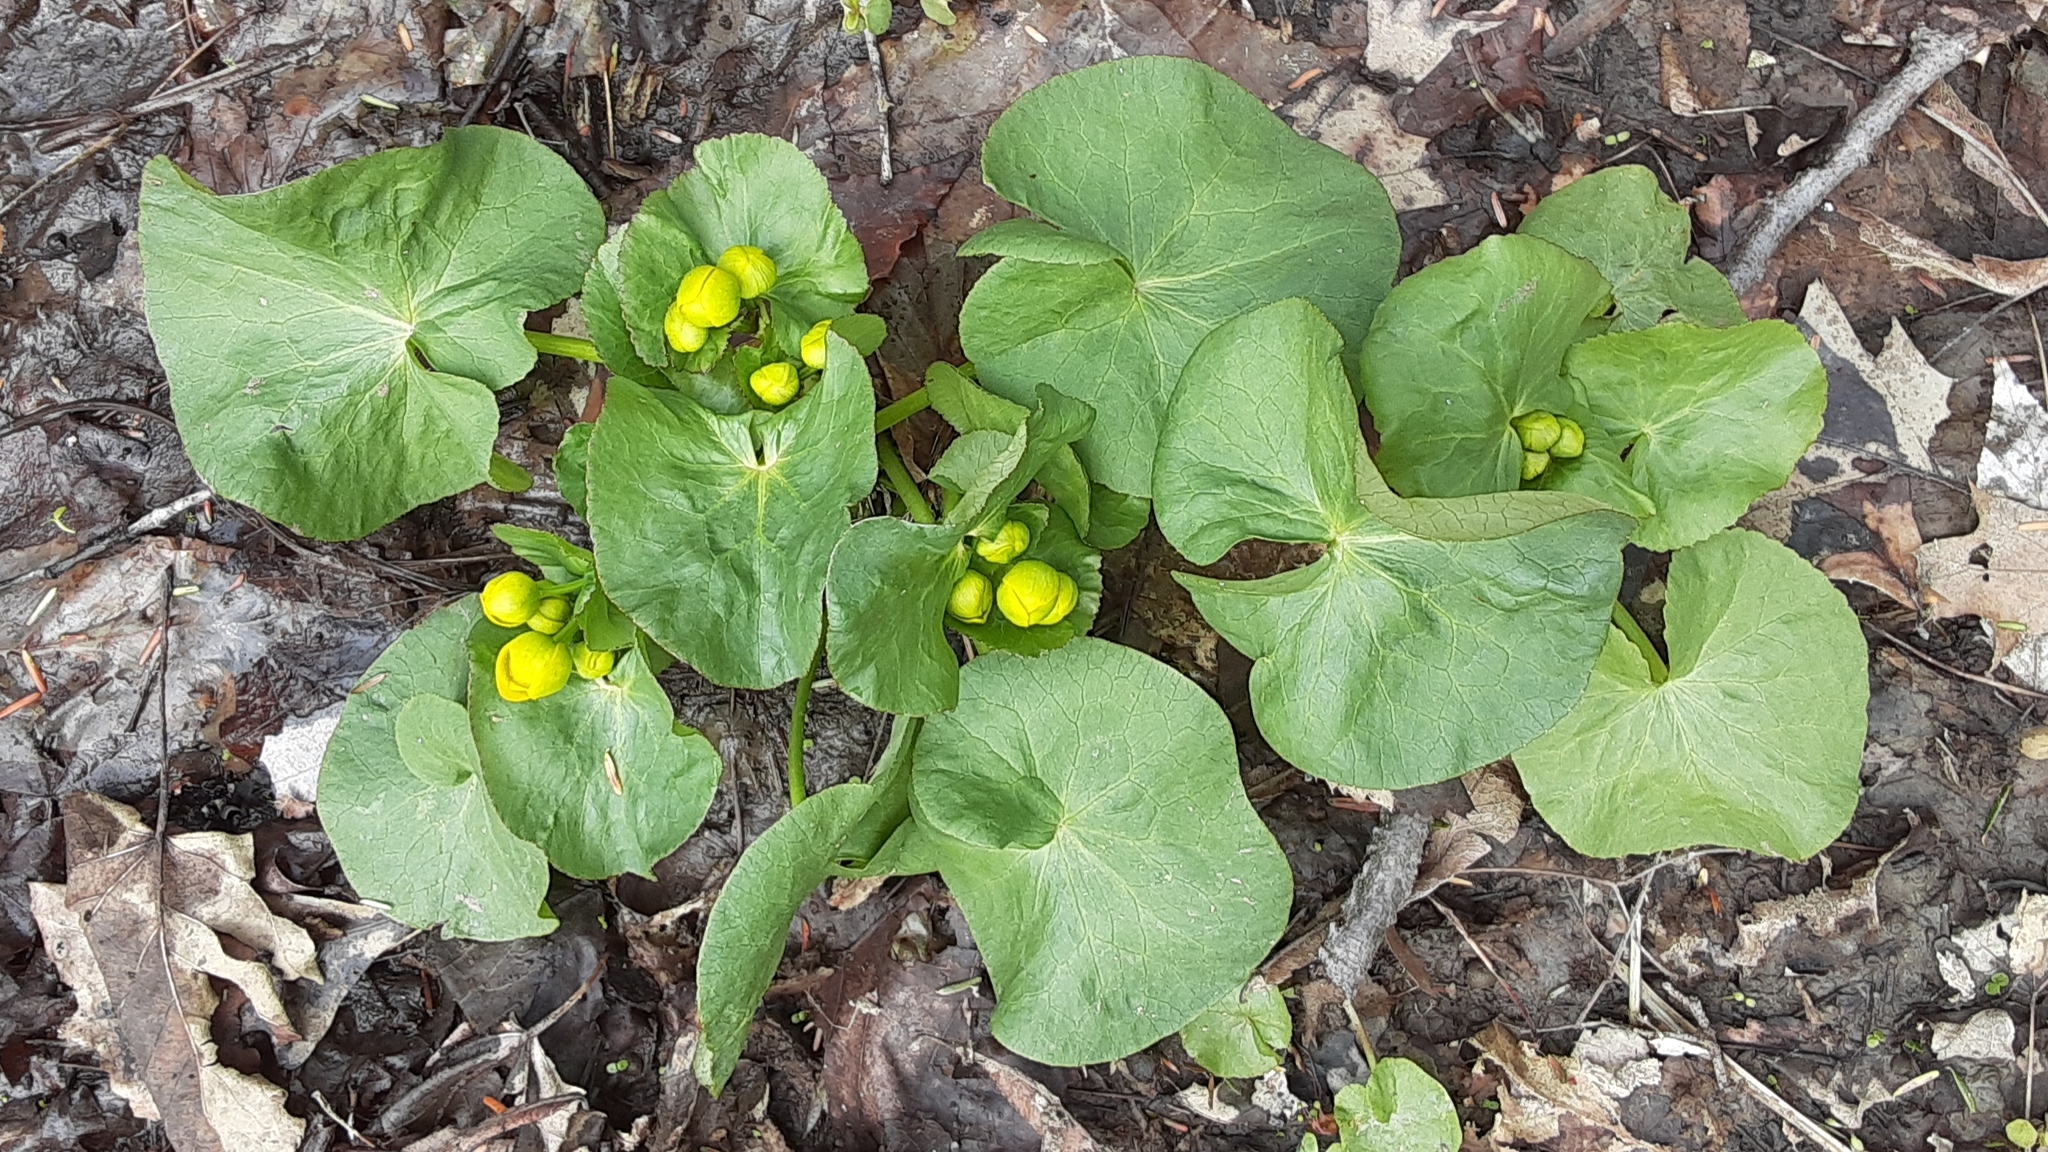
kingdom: Plantae
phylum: Tracheophyta
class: Magnoliopsida
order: Ranunculales
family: Ranunculaceae
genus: Caltha
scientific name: Caltha palustris
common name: Marsh marigold
